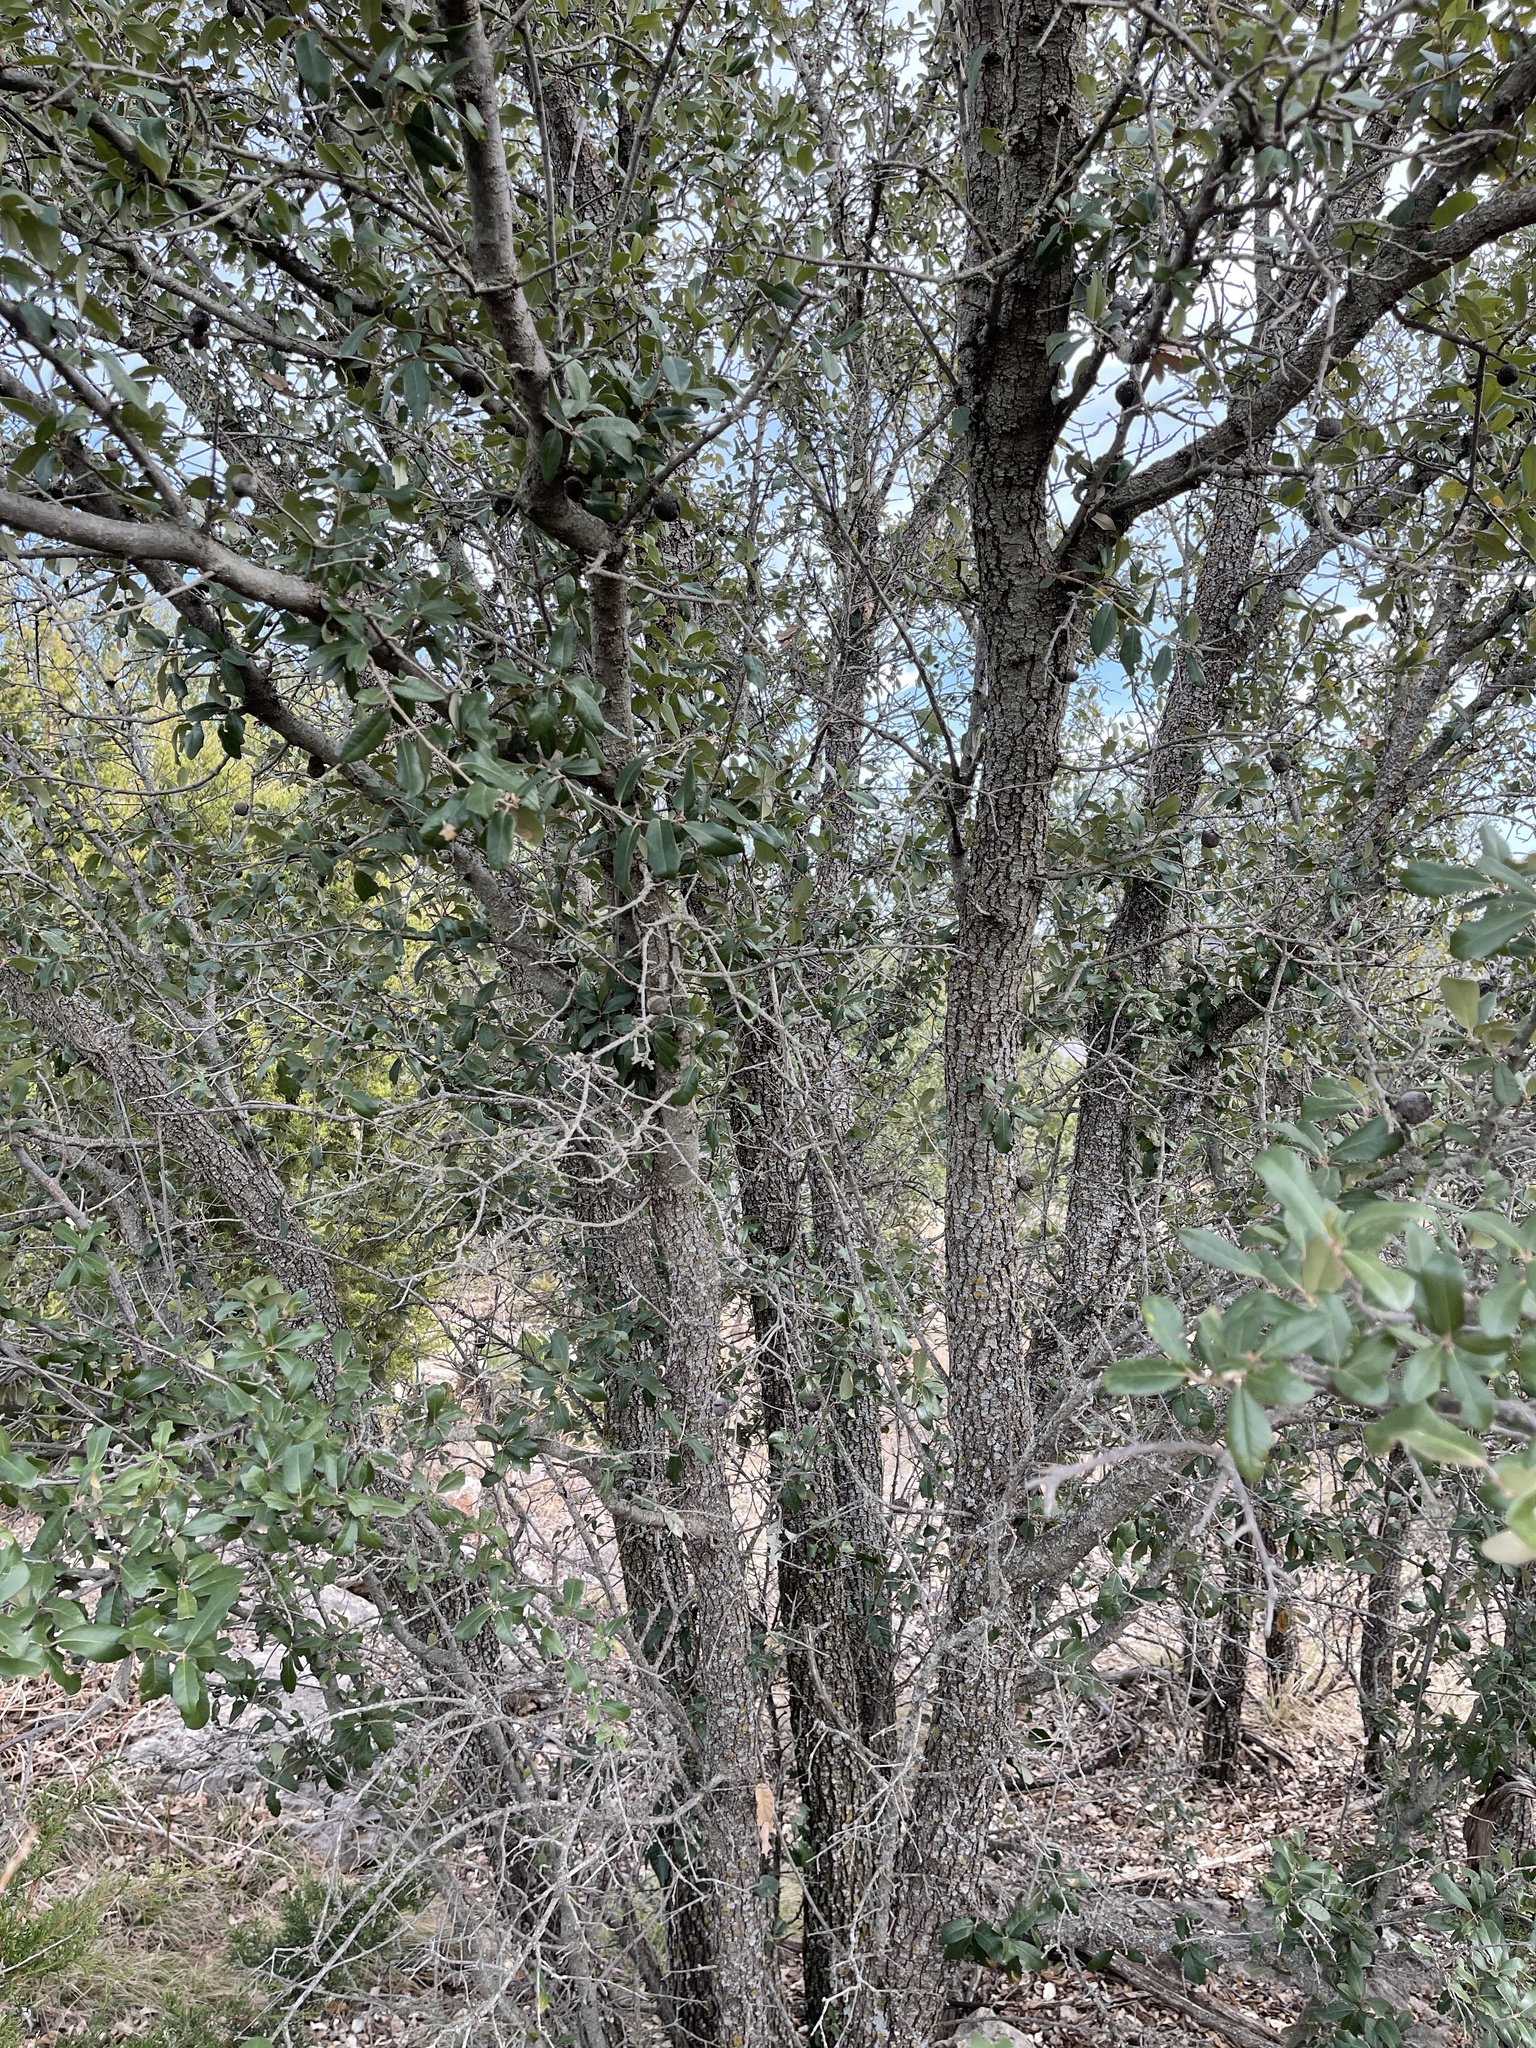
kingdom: Plantae
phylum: Tracheophyta
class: Magnoliopsida
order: Fagales
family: Fagaceae
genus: Quercus
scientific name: Quercus fusiformis
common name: Texas live oak
